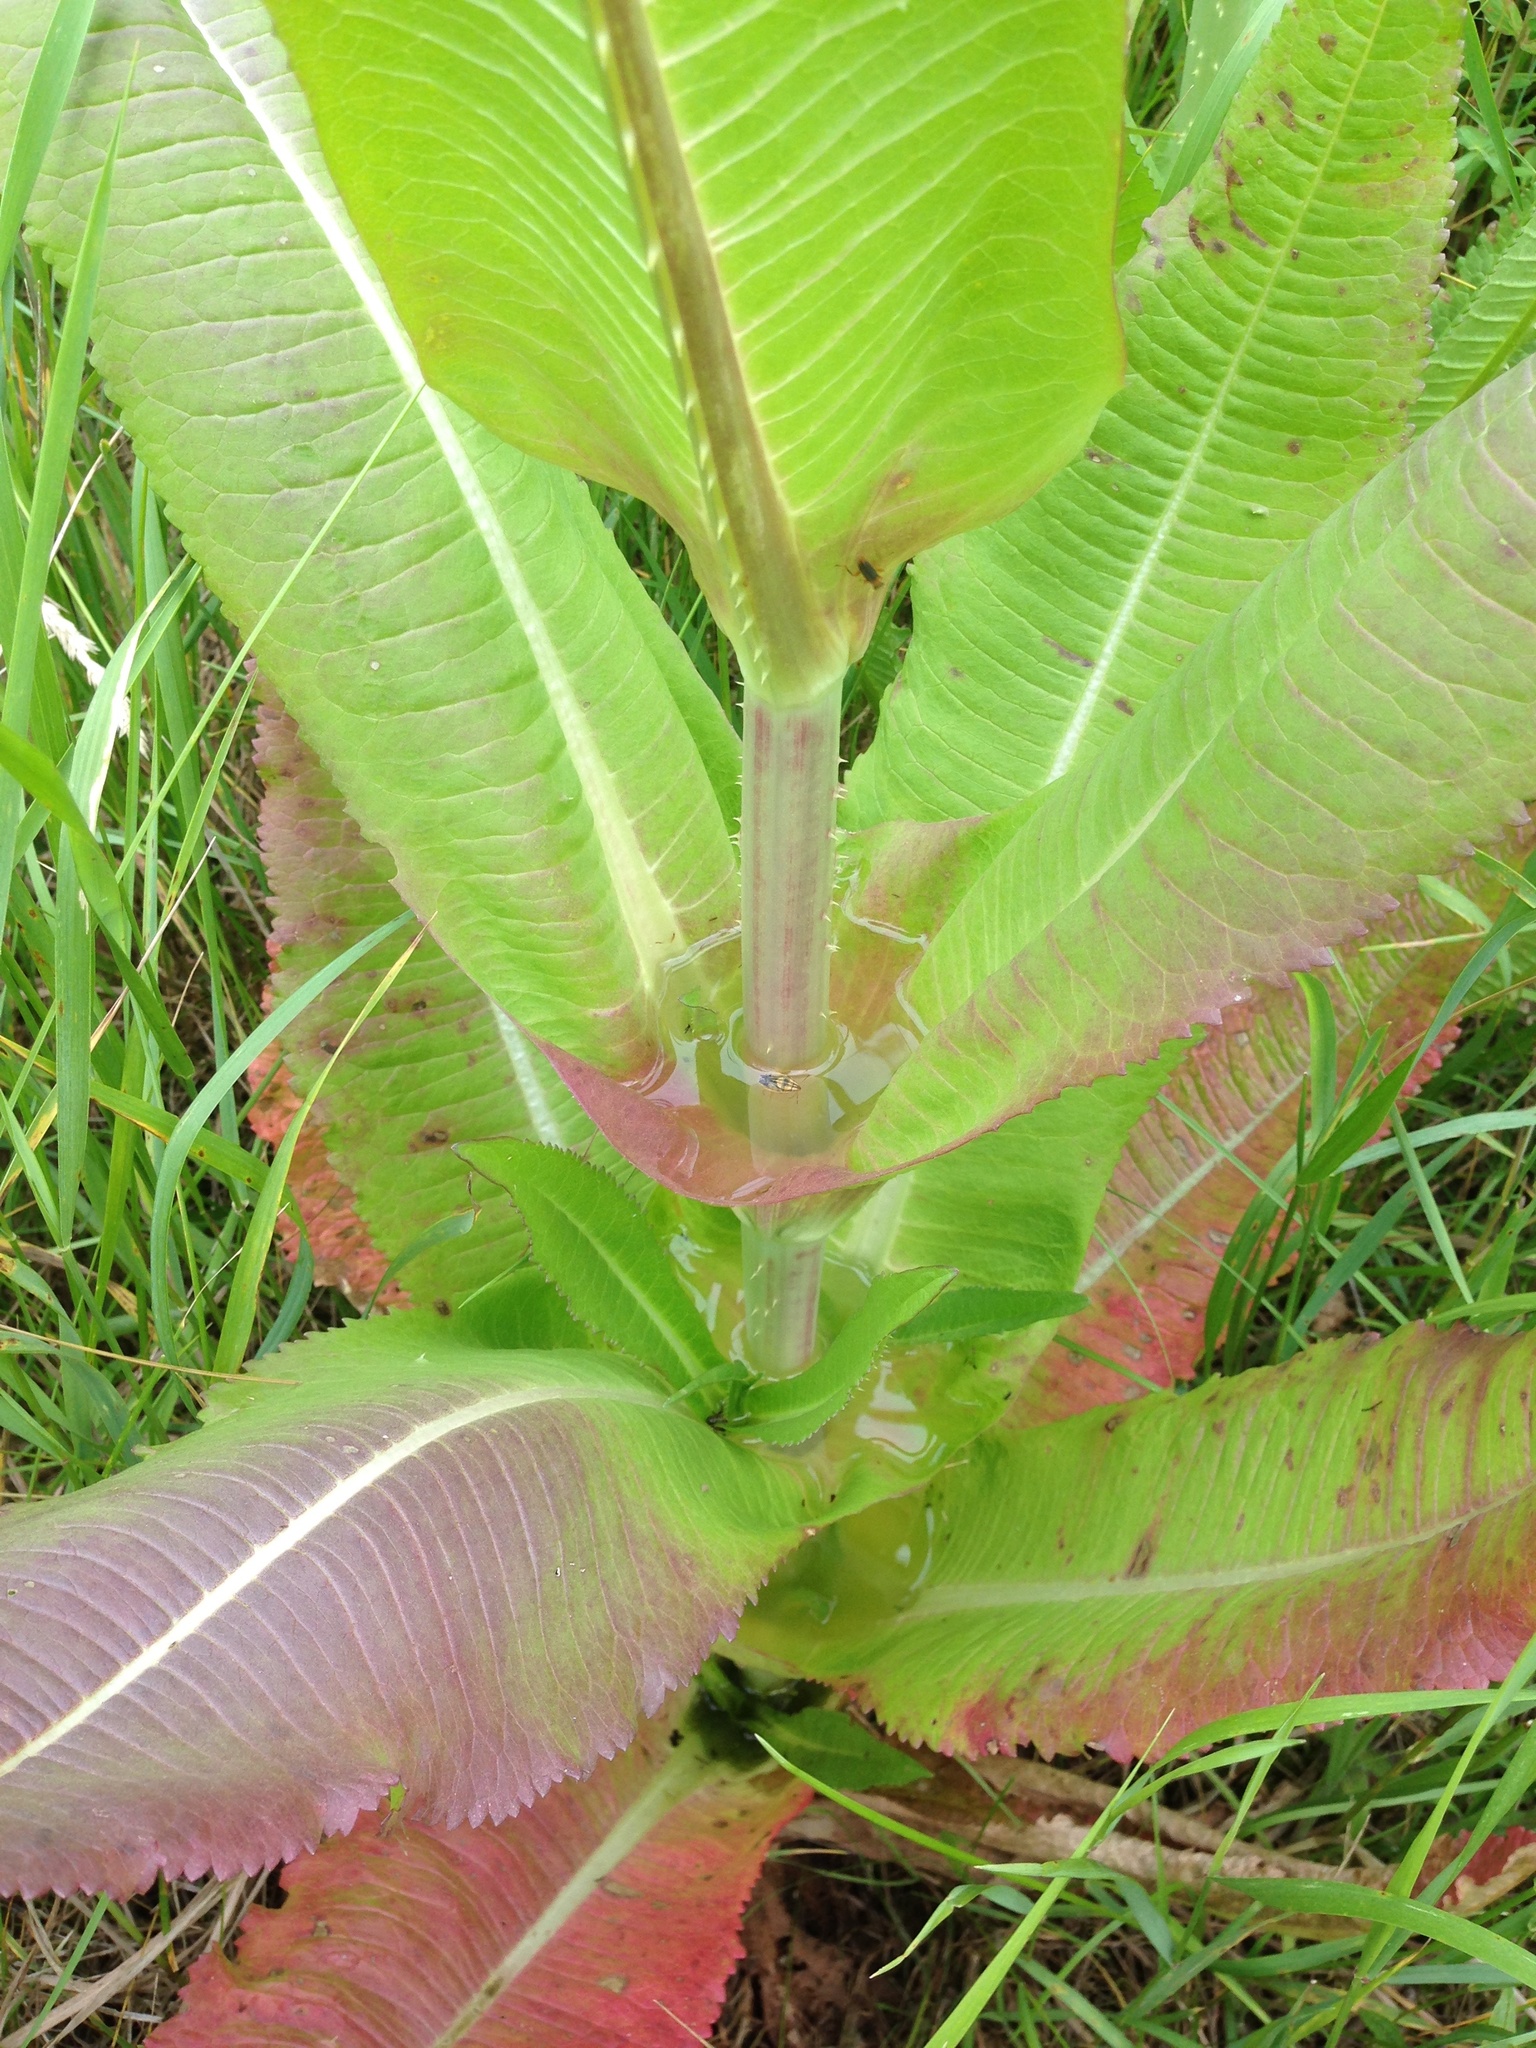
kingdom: Plantae
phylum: Tracheophyta
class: Magnoliopsida
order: Dipsacales
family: Caprifoliaceae
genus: Dipsacus
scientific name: Dipsacus fullonum
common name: Teasel
